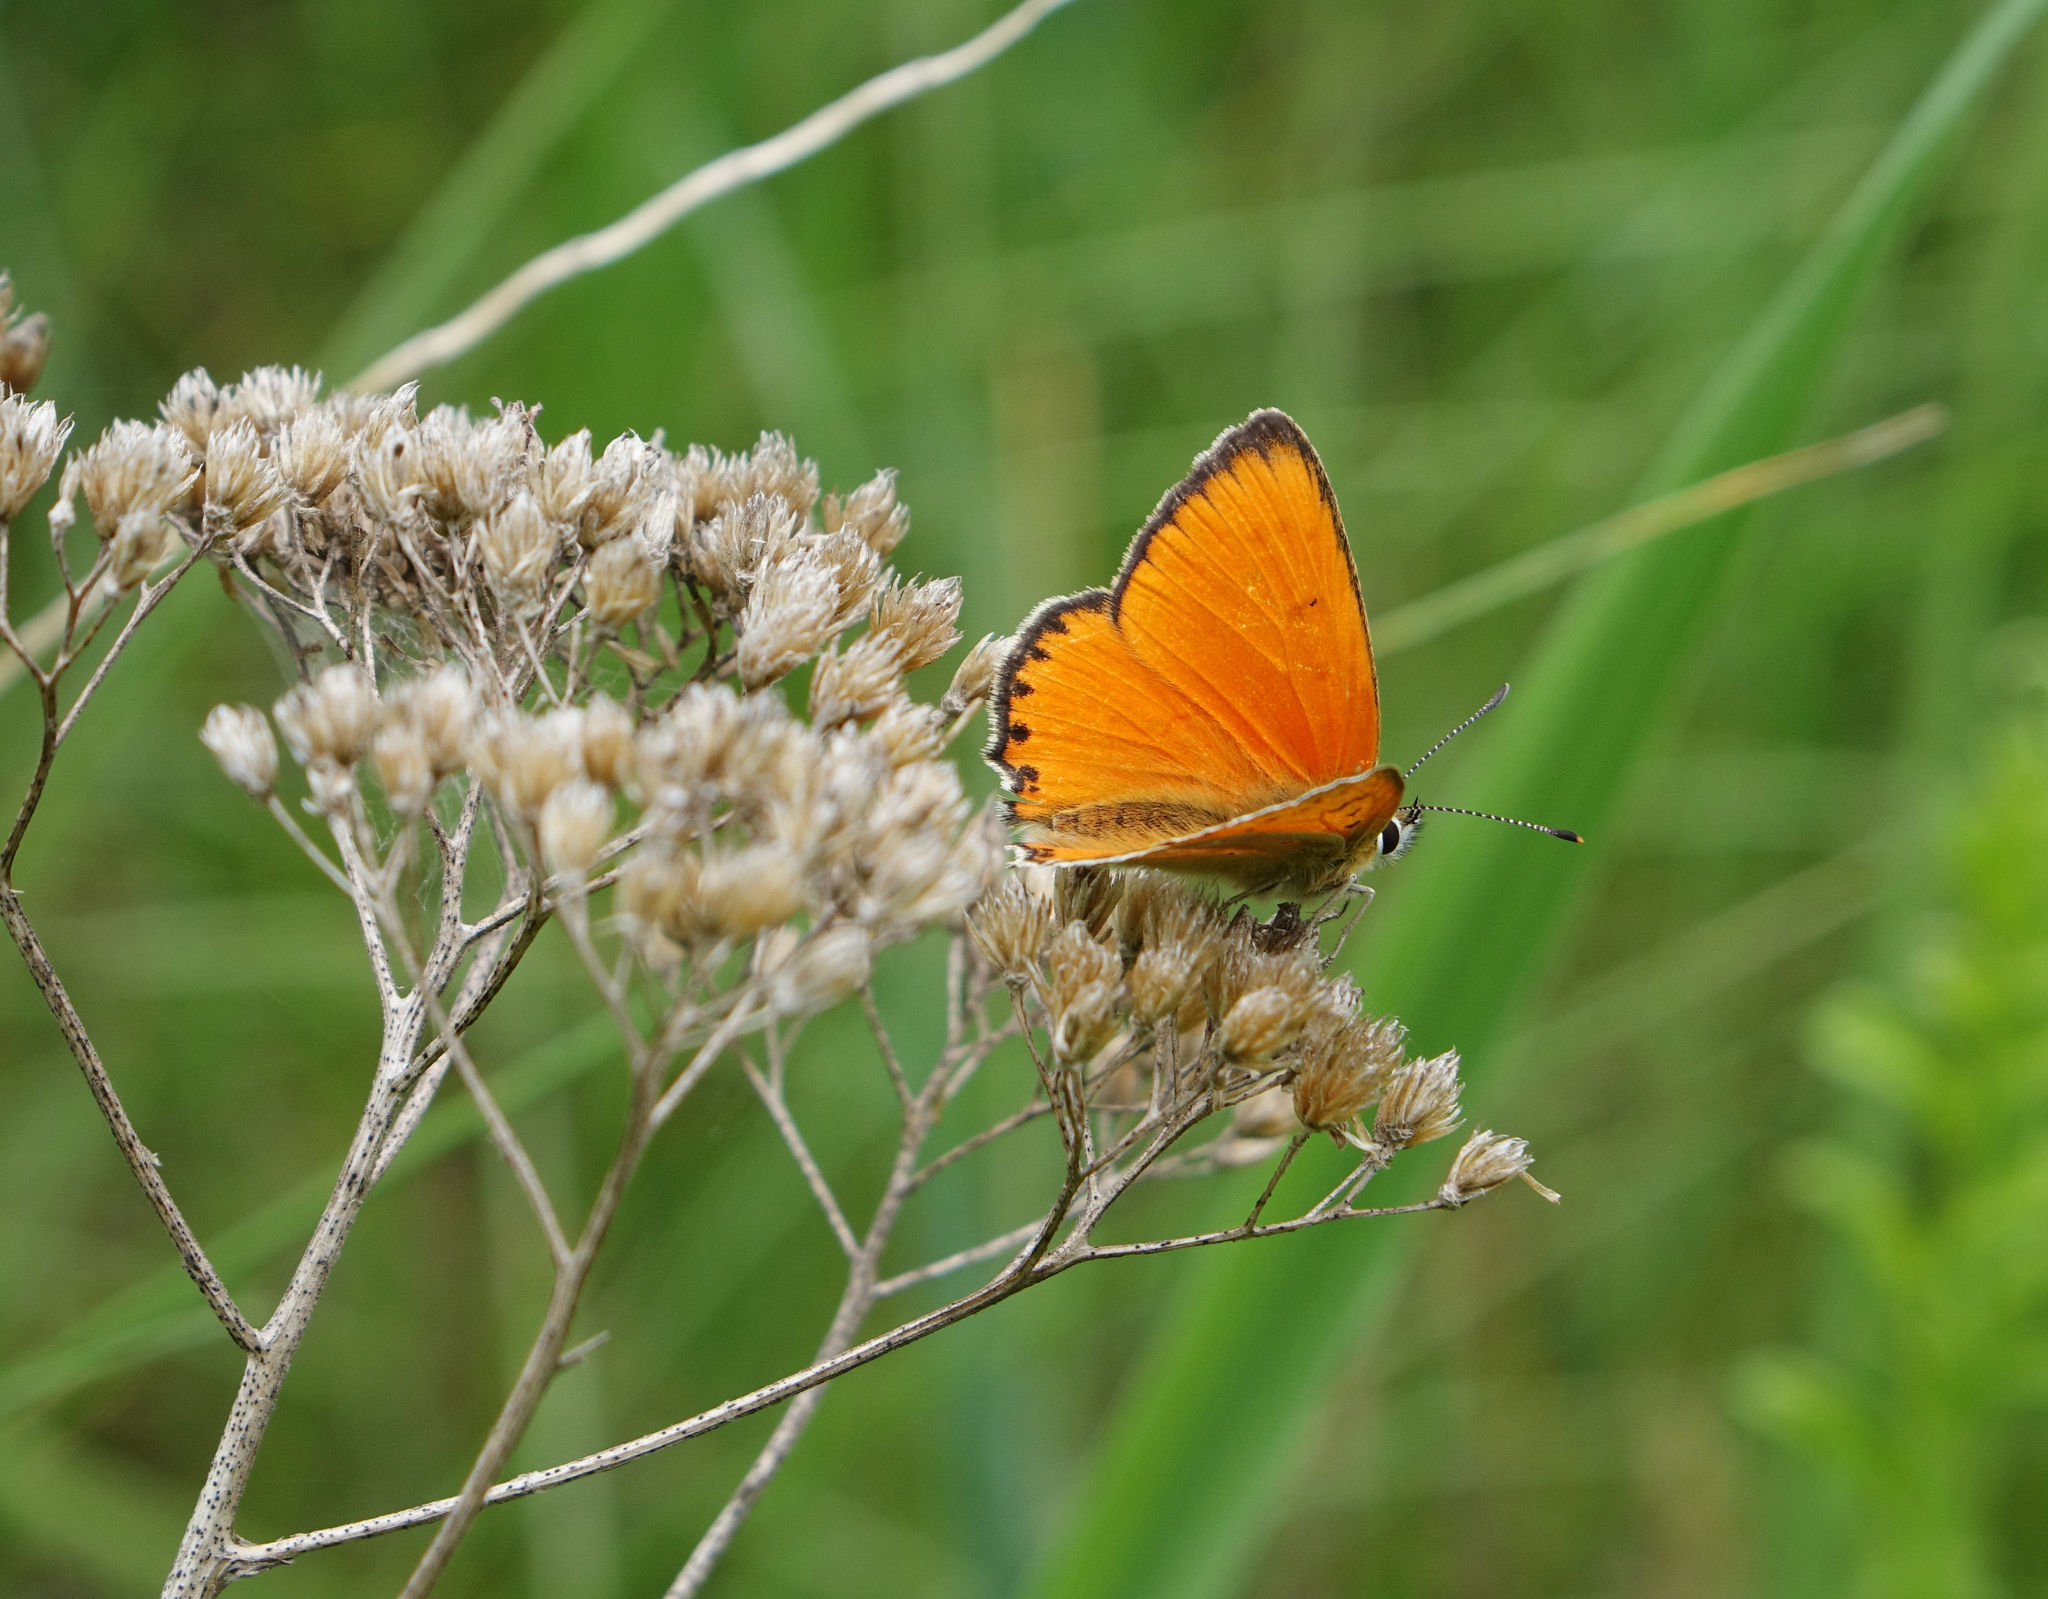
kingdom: Animalia
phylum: Arthropoda
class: Insecta
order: Lepidoptera
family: Lycaenidae
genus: Lycaena
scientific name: Lycaena virgaureae
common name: Scarce copper
